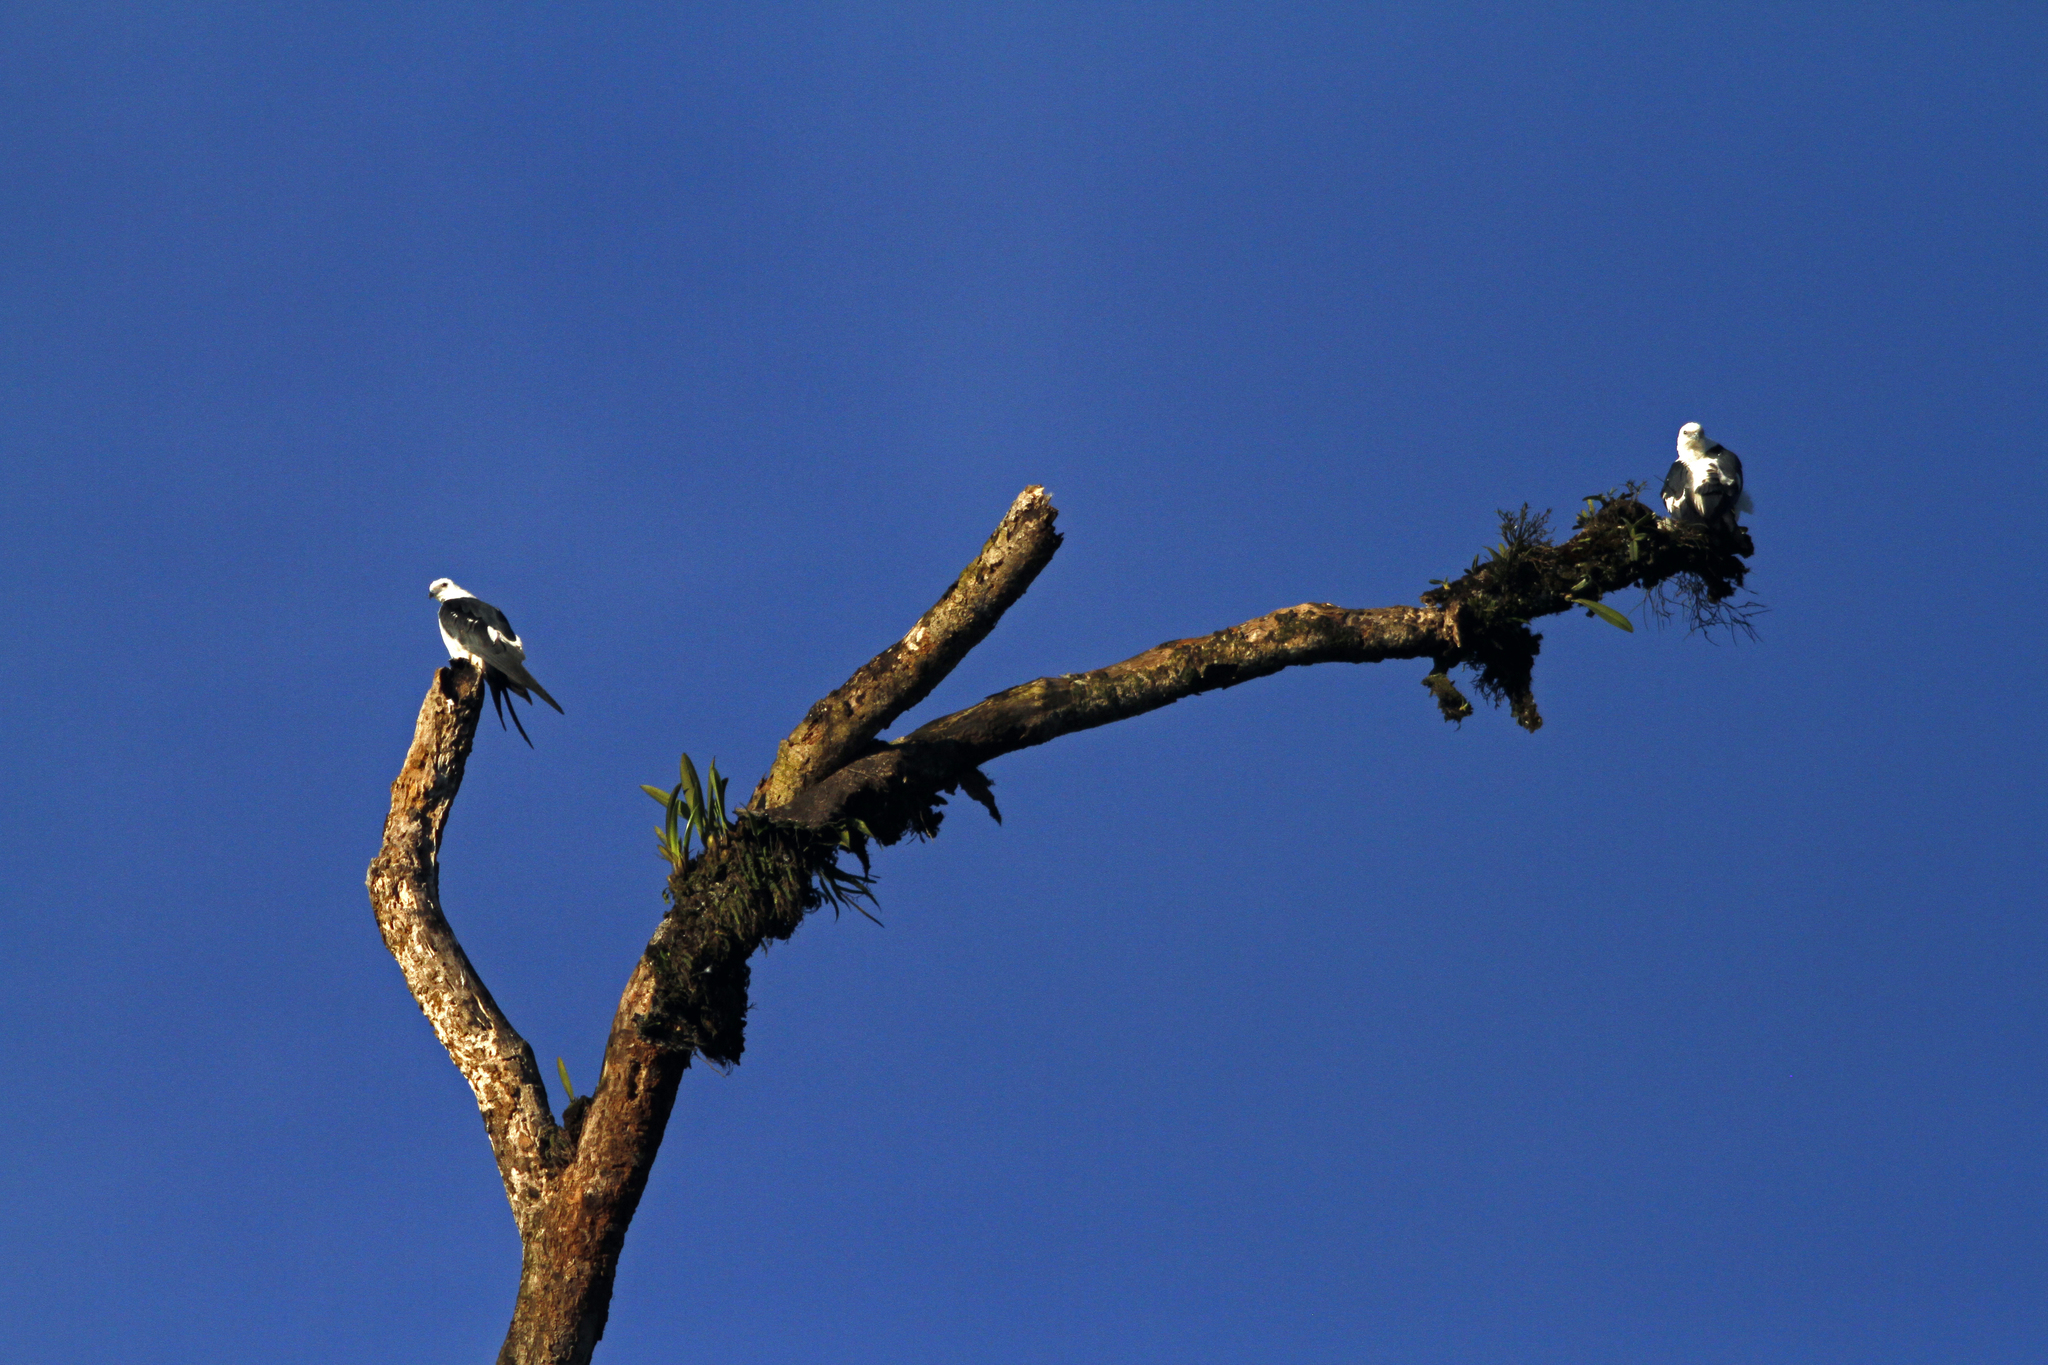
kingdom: Animalia
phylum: Chordata
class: Aves
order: Accipitriformes
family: Accipitridae
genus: Elanoides
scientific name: Elanoides forficatus
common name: Swallow-tailed kite
